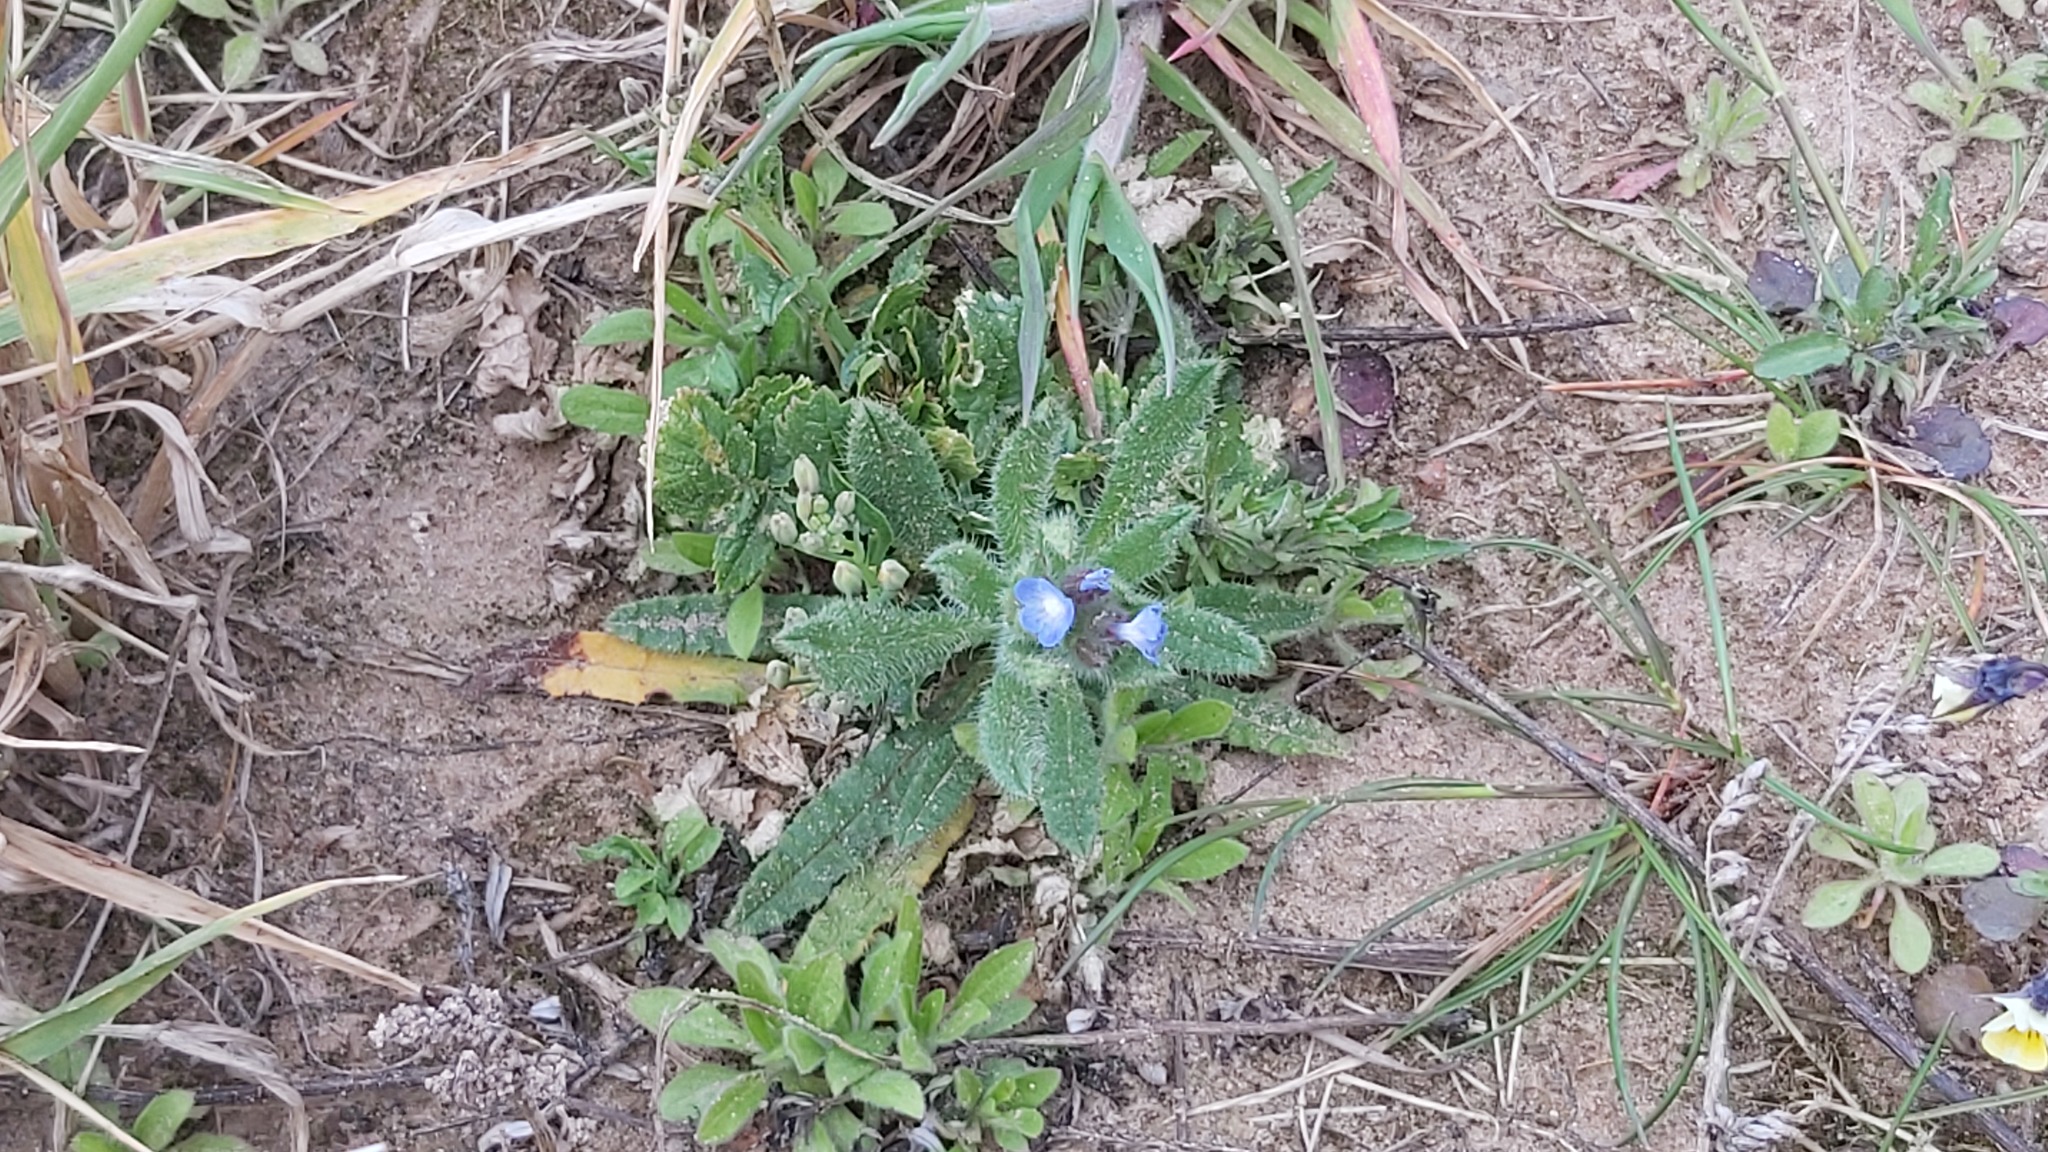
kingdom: Plantae
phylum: Tracheophyta
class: Magnoliopsida
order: Boraginales
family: Boraginaceae
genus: Lycopsis
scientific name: Lycopsis arvensis
